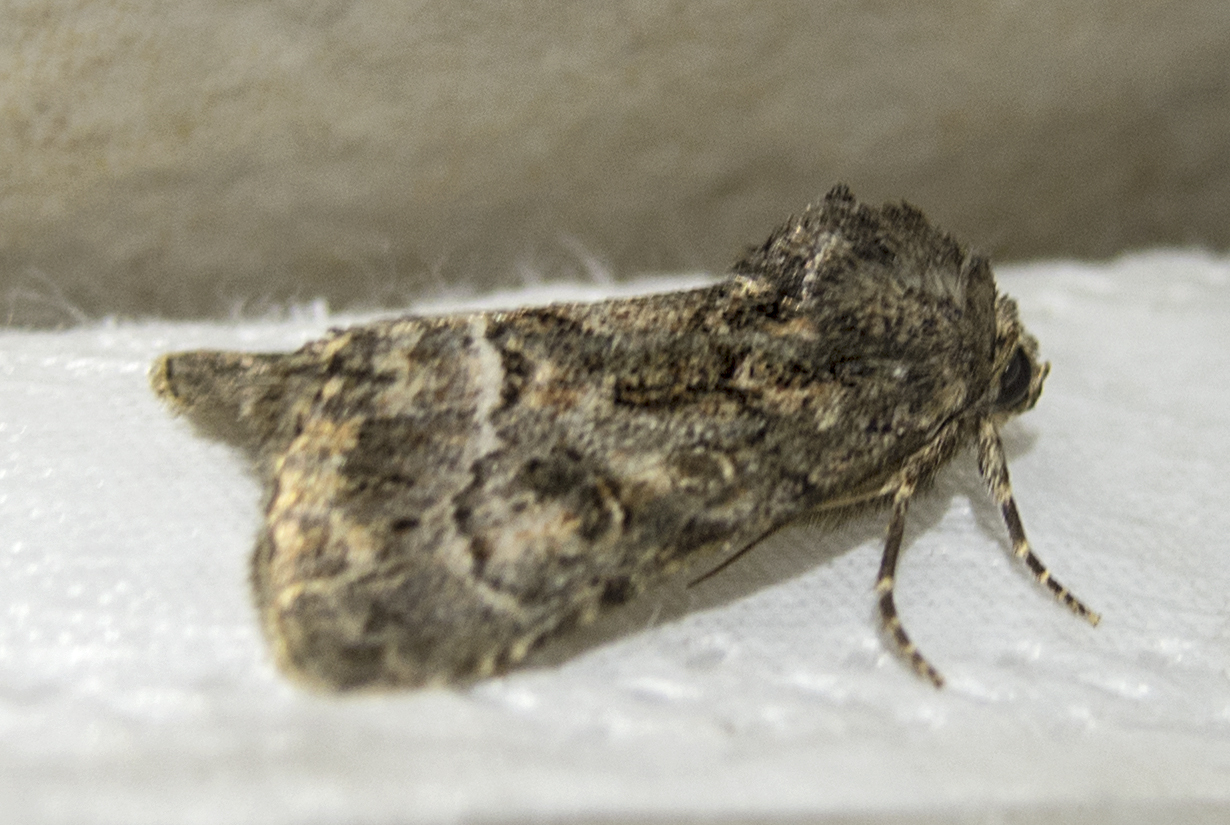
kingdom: Animalia
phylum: Arthropoda
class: Insecta
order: Lepidoptera
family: Noctuidae
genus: Thalpophila
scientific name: Thalpophila matura
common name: Straw underwing
